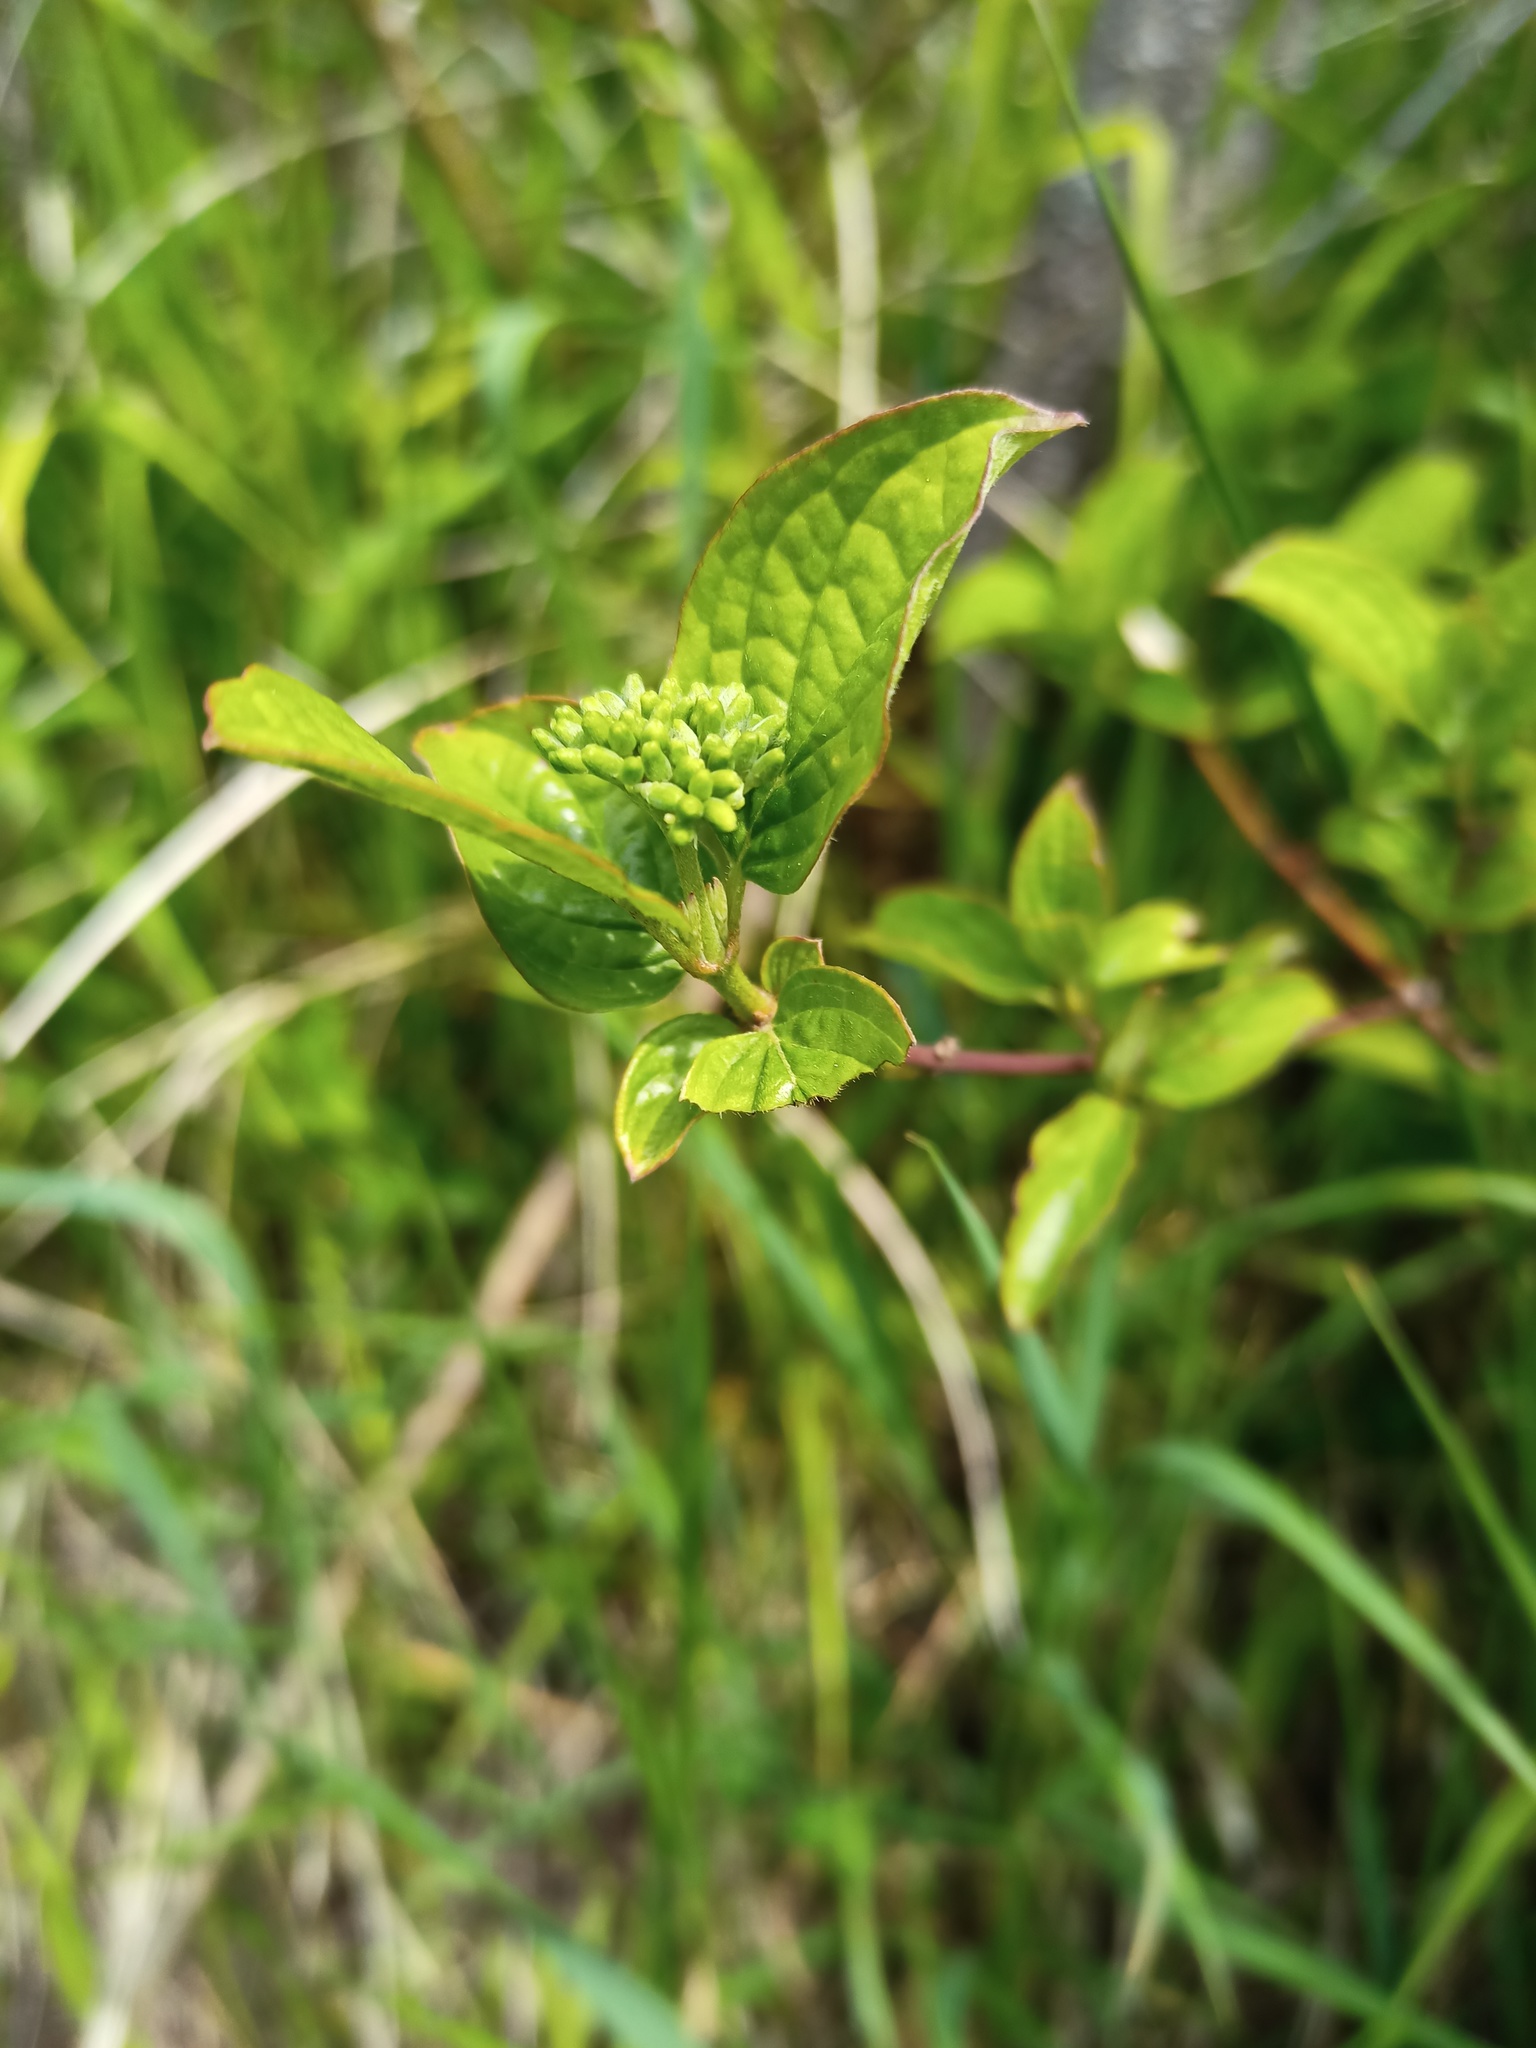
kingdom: Plantae
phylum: Tracheophyta
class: Magnoliopsida
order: Cornales
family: Cornaceae
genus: Cornus
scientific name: Cornus sanguinea
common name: Dogwood
